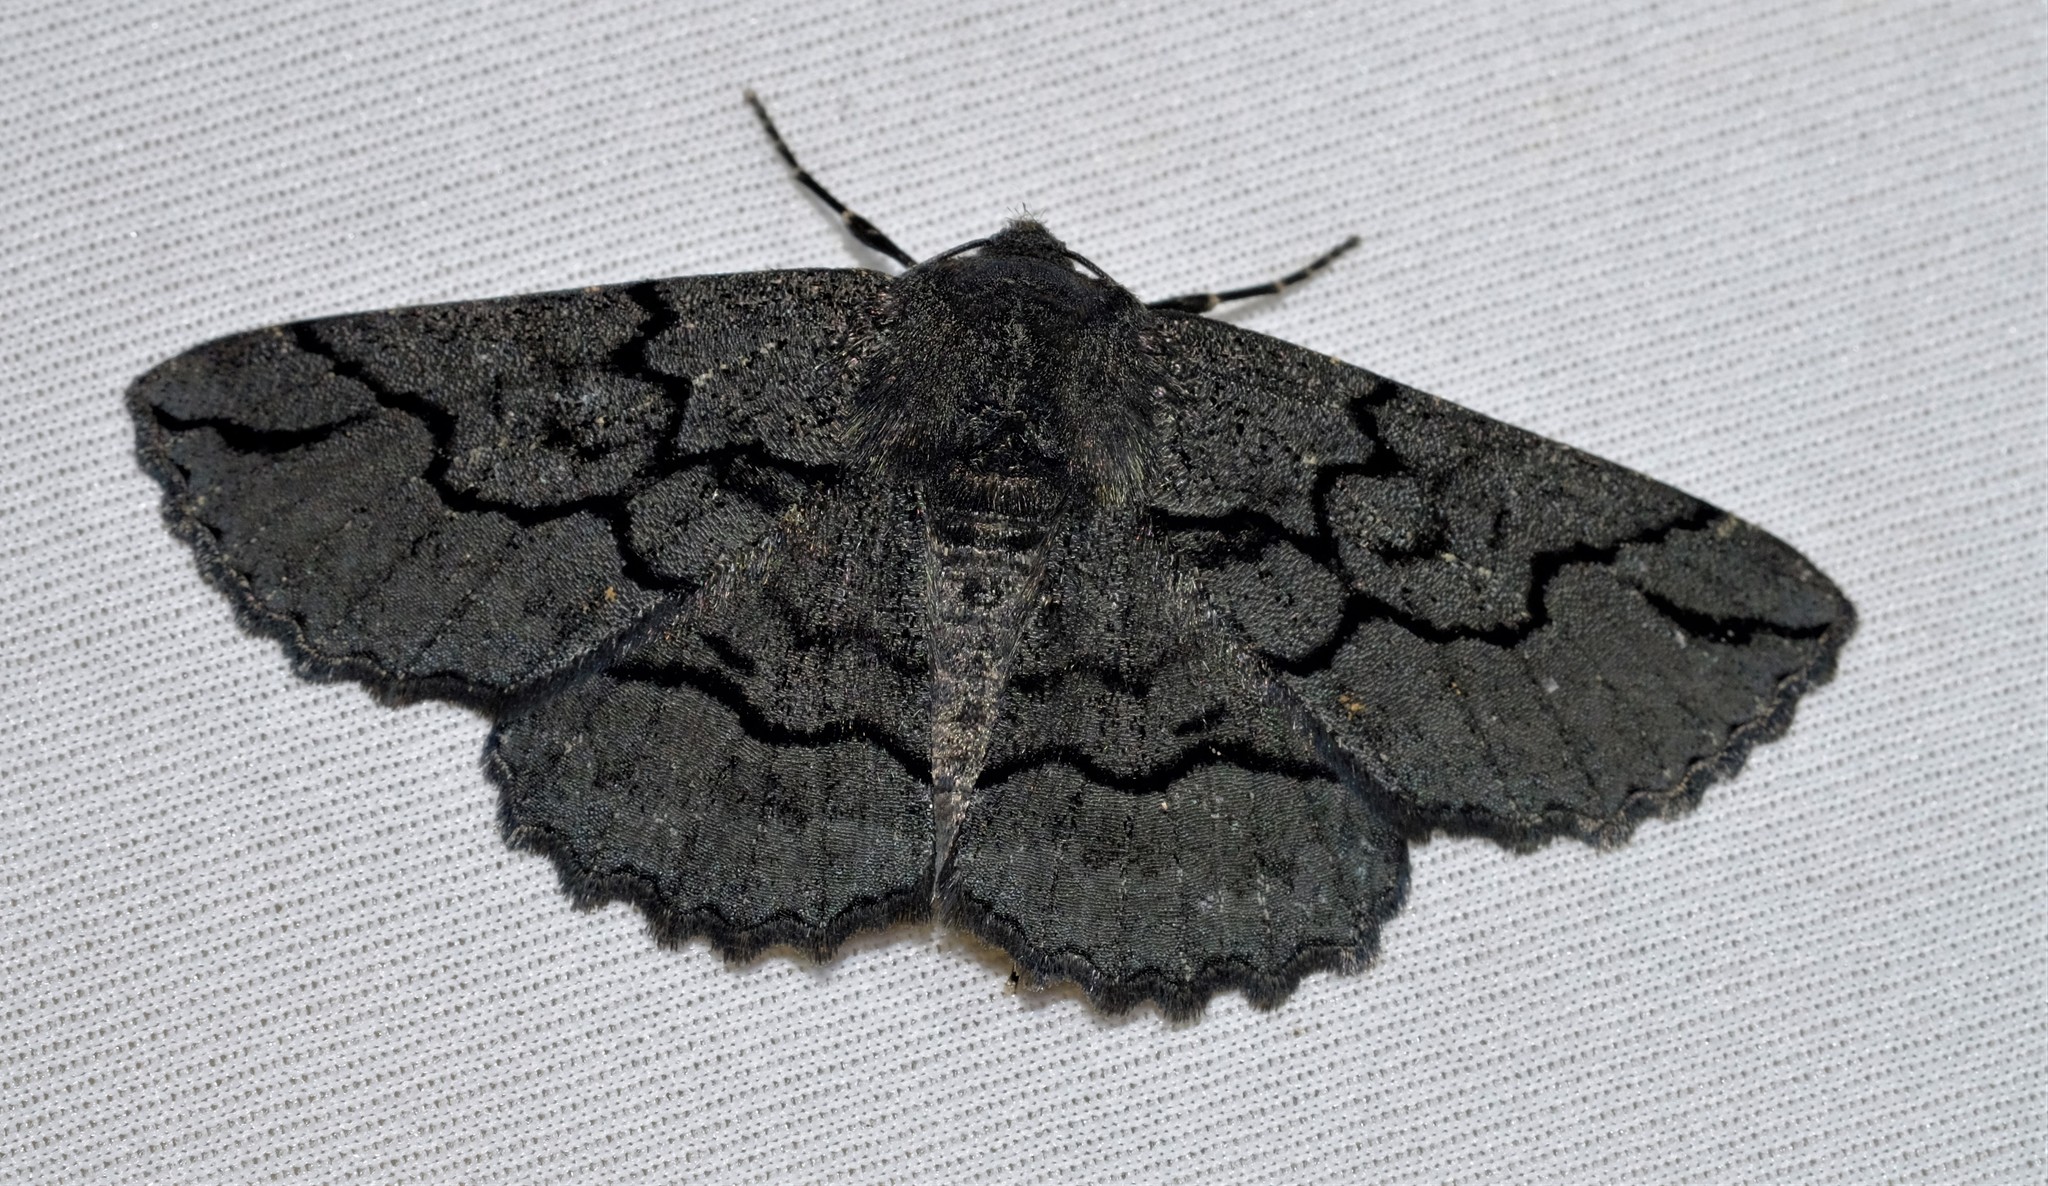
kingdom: Animalia
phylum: Arthropoda
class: Insecta
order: Lepidoptera
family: Geometridae
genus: Melanodes
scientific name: Melanodes anthracitaria
